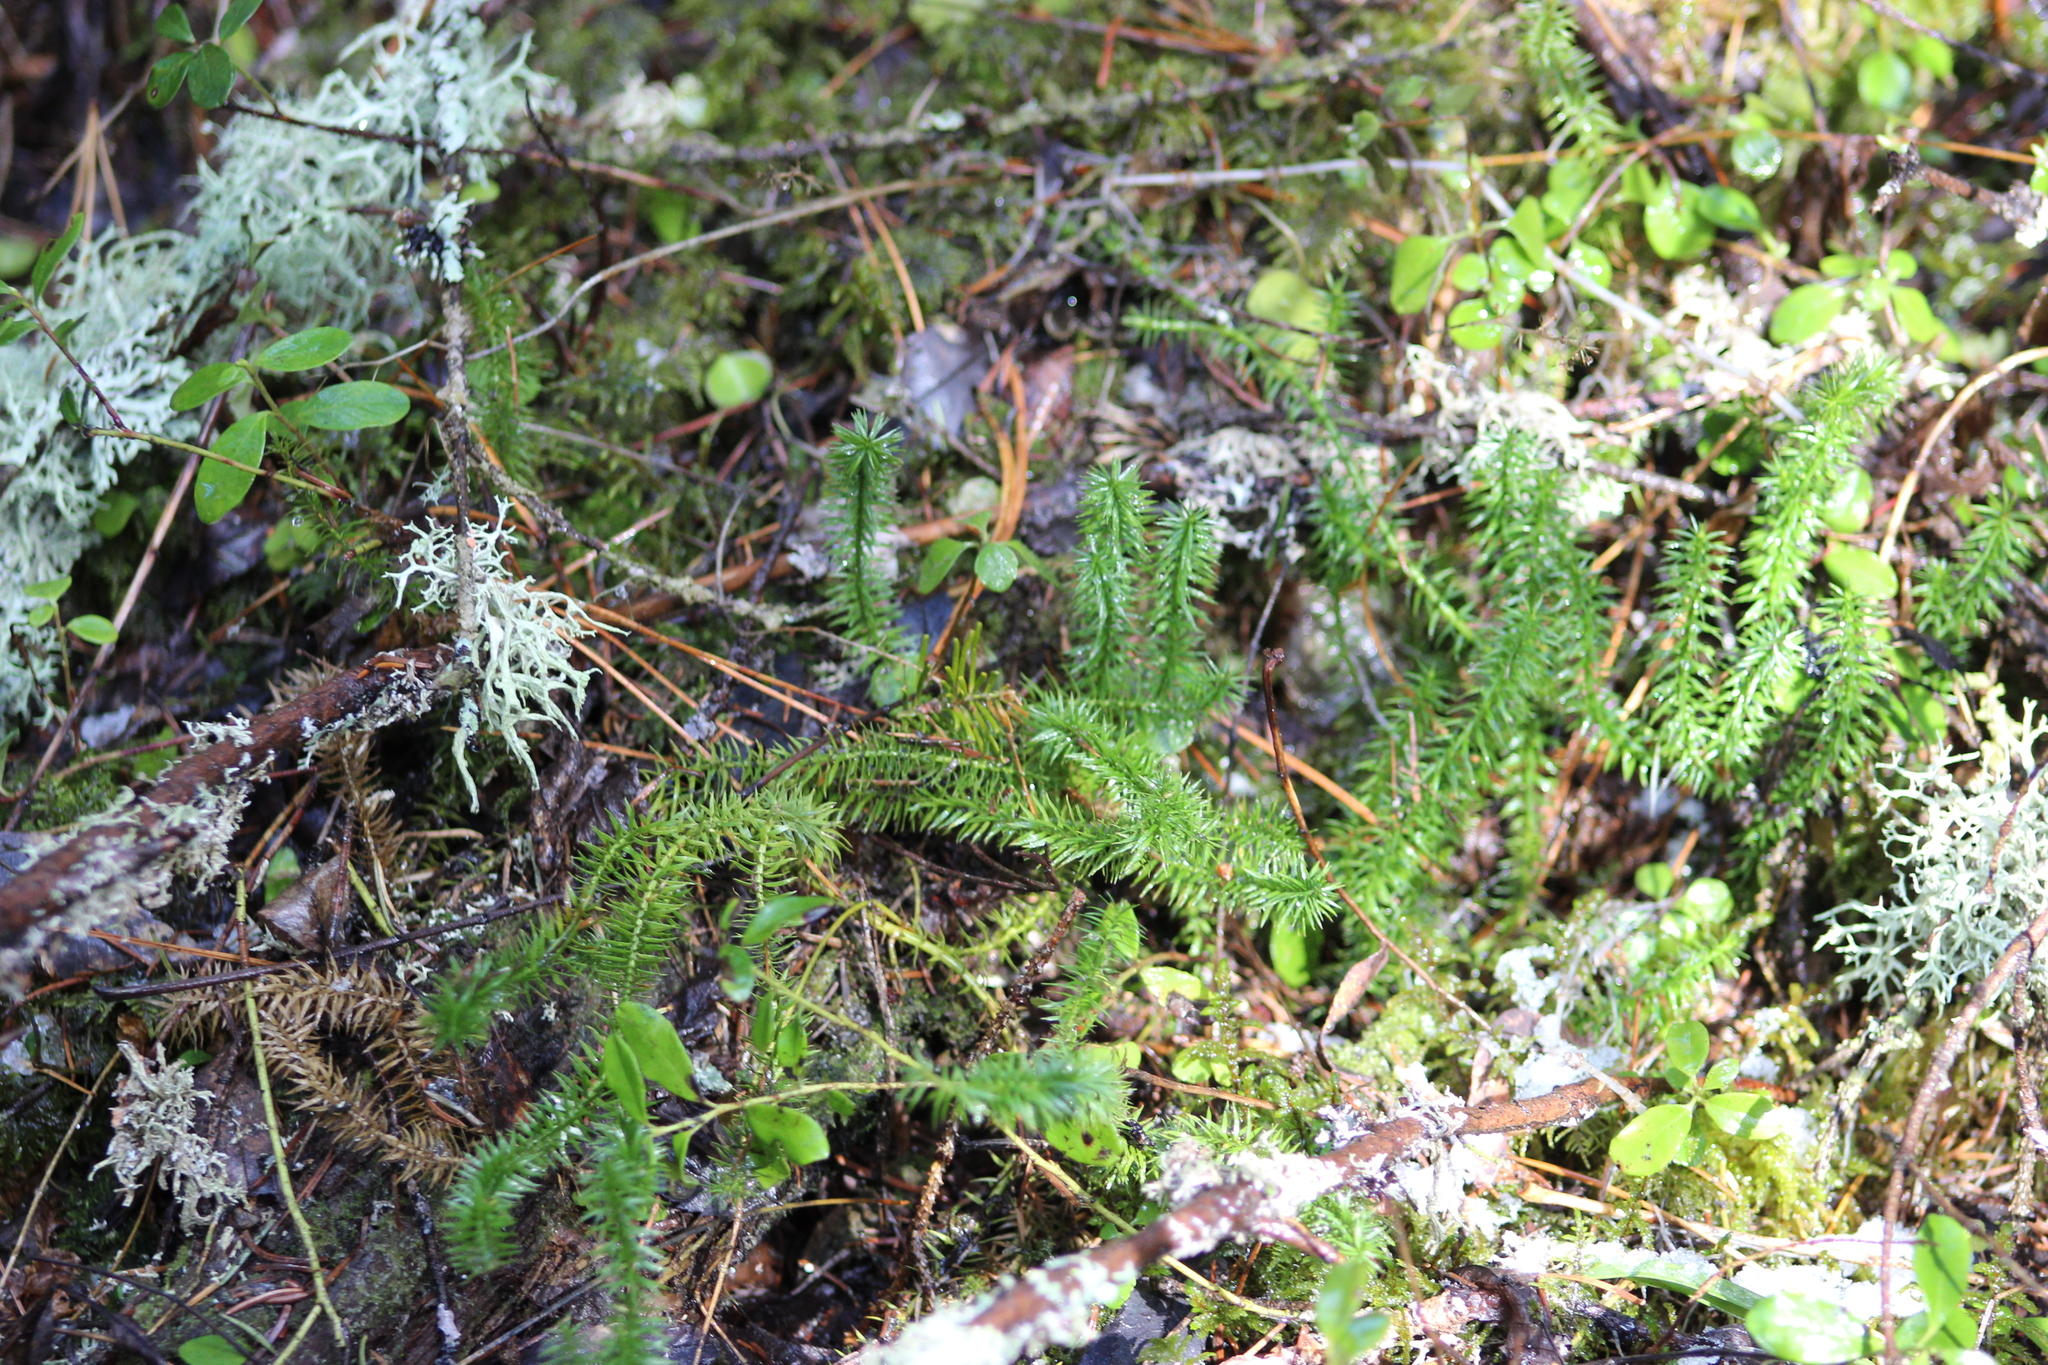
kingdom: Plantae
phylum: Tracheophyta
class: Lycopodiopsida
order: Lycopodiales
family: Lycopodiaceae
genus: Spinulum
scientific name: Spinulum annotinum
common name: Interrupted club-moss
